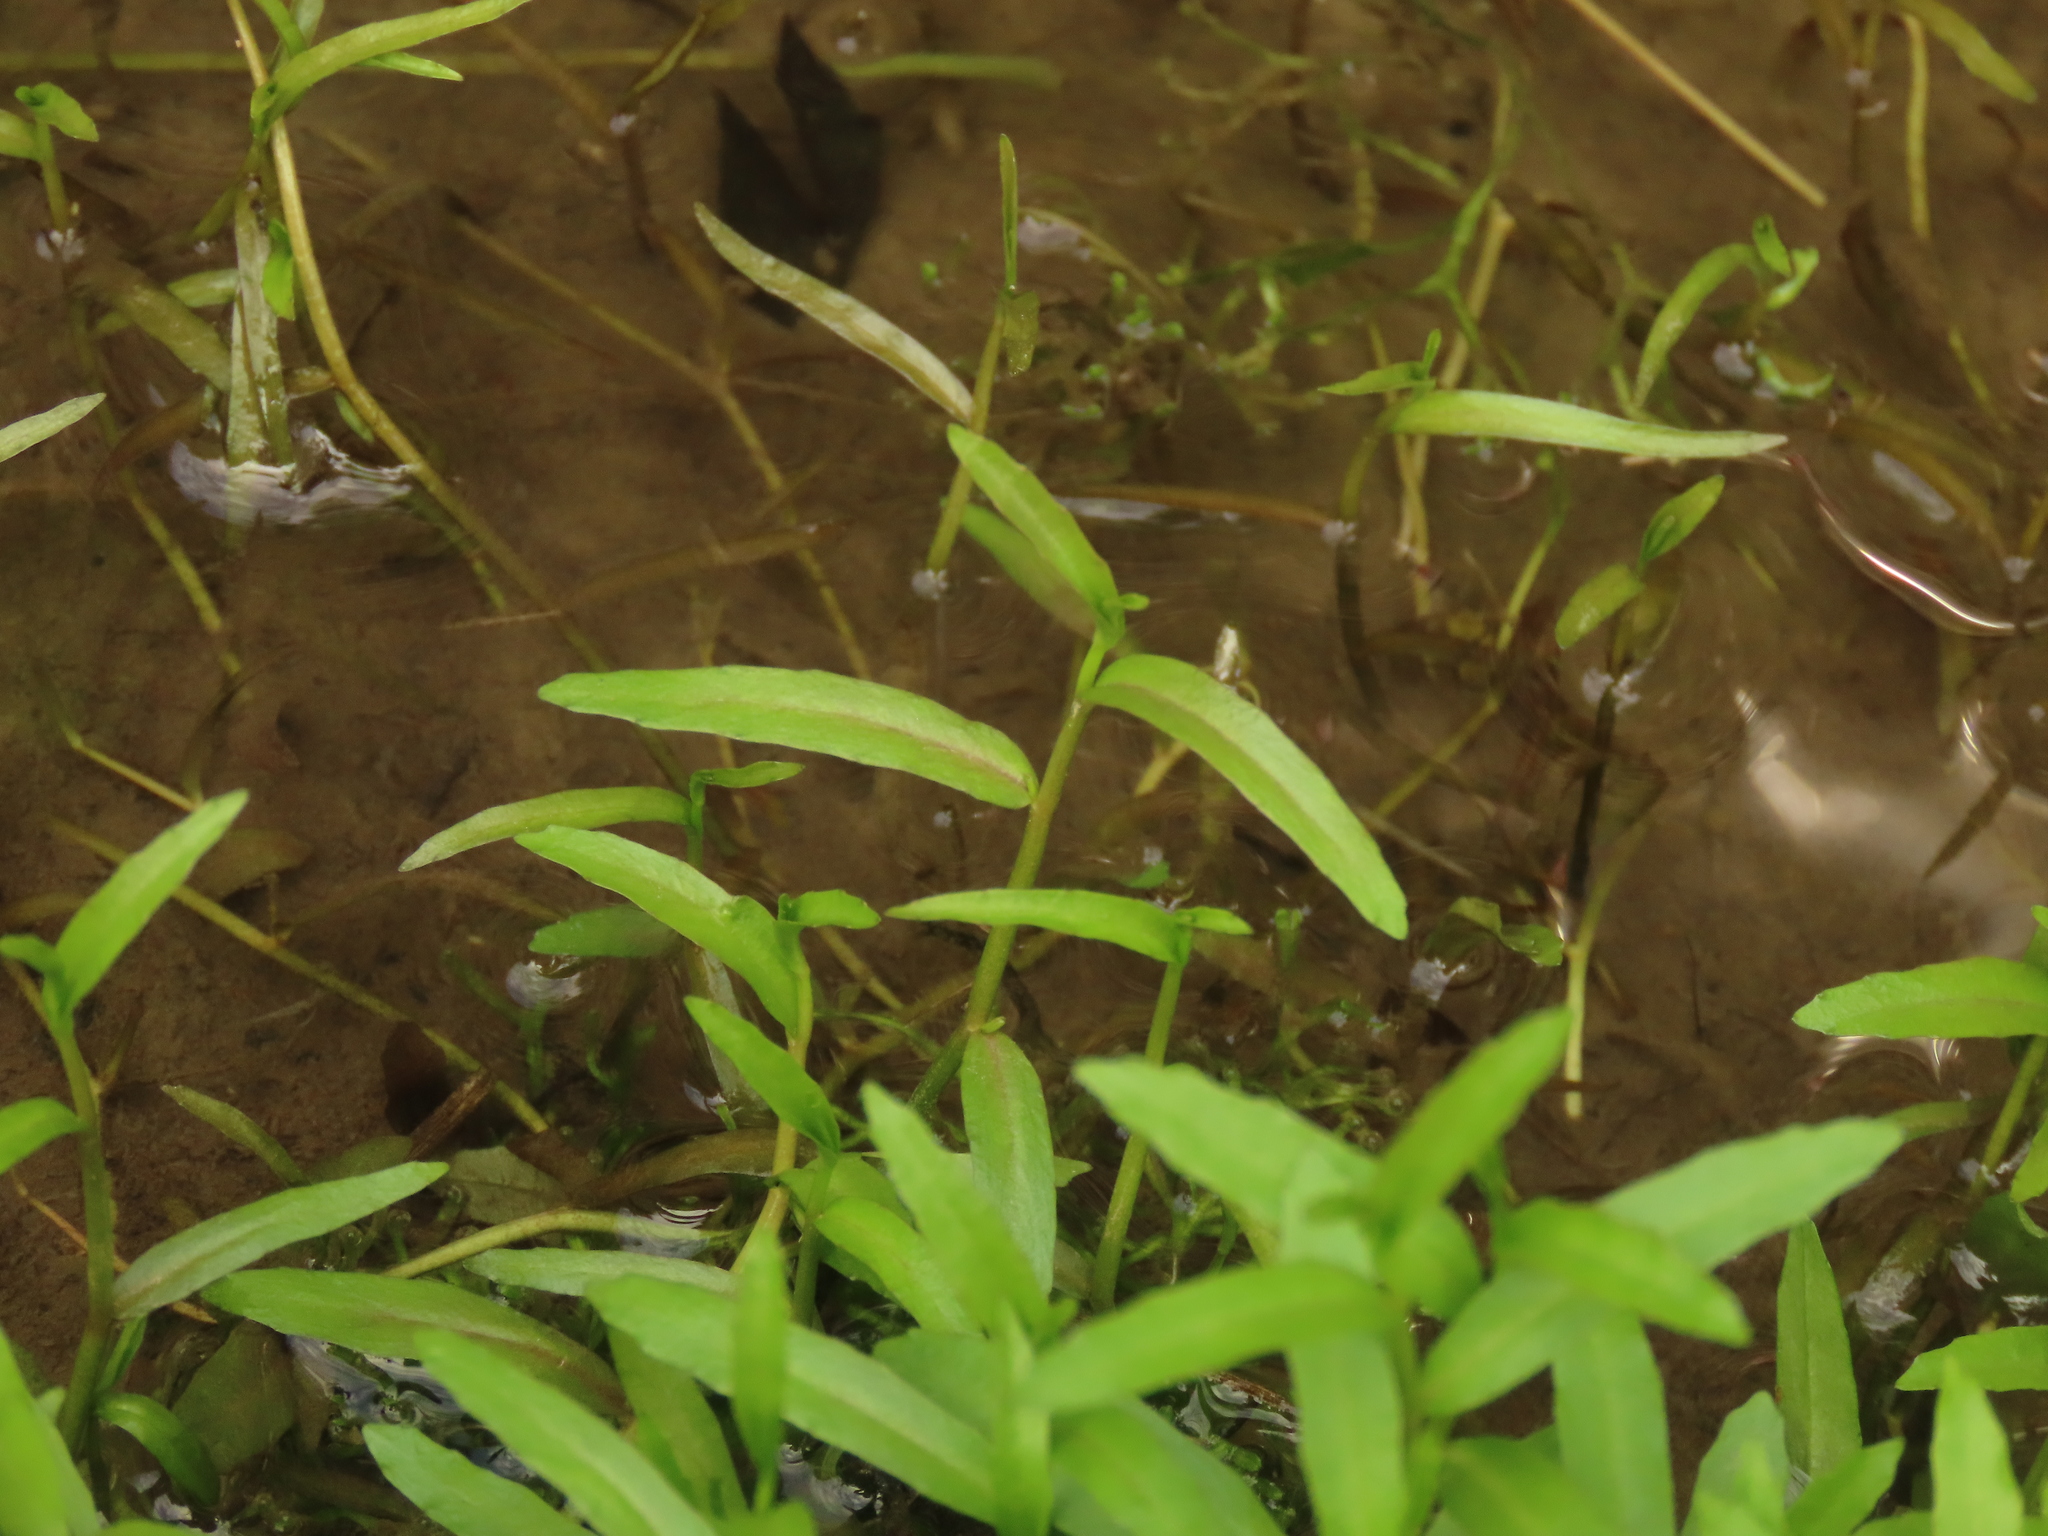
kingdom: Plantae
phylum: Tracheophyta
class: Magnoliopsida
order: Asterales
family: Campanulaceae
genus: Lobelia
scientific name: Lobelia chinensis
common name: Chinese lobelia
